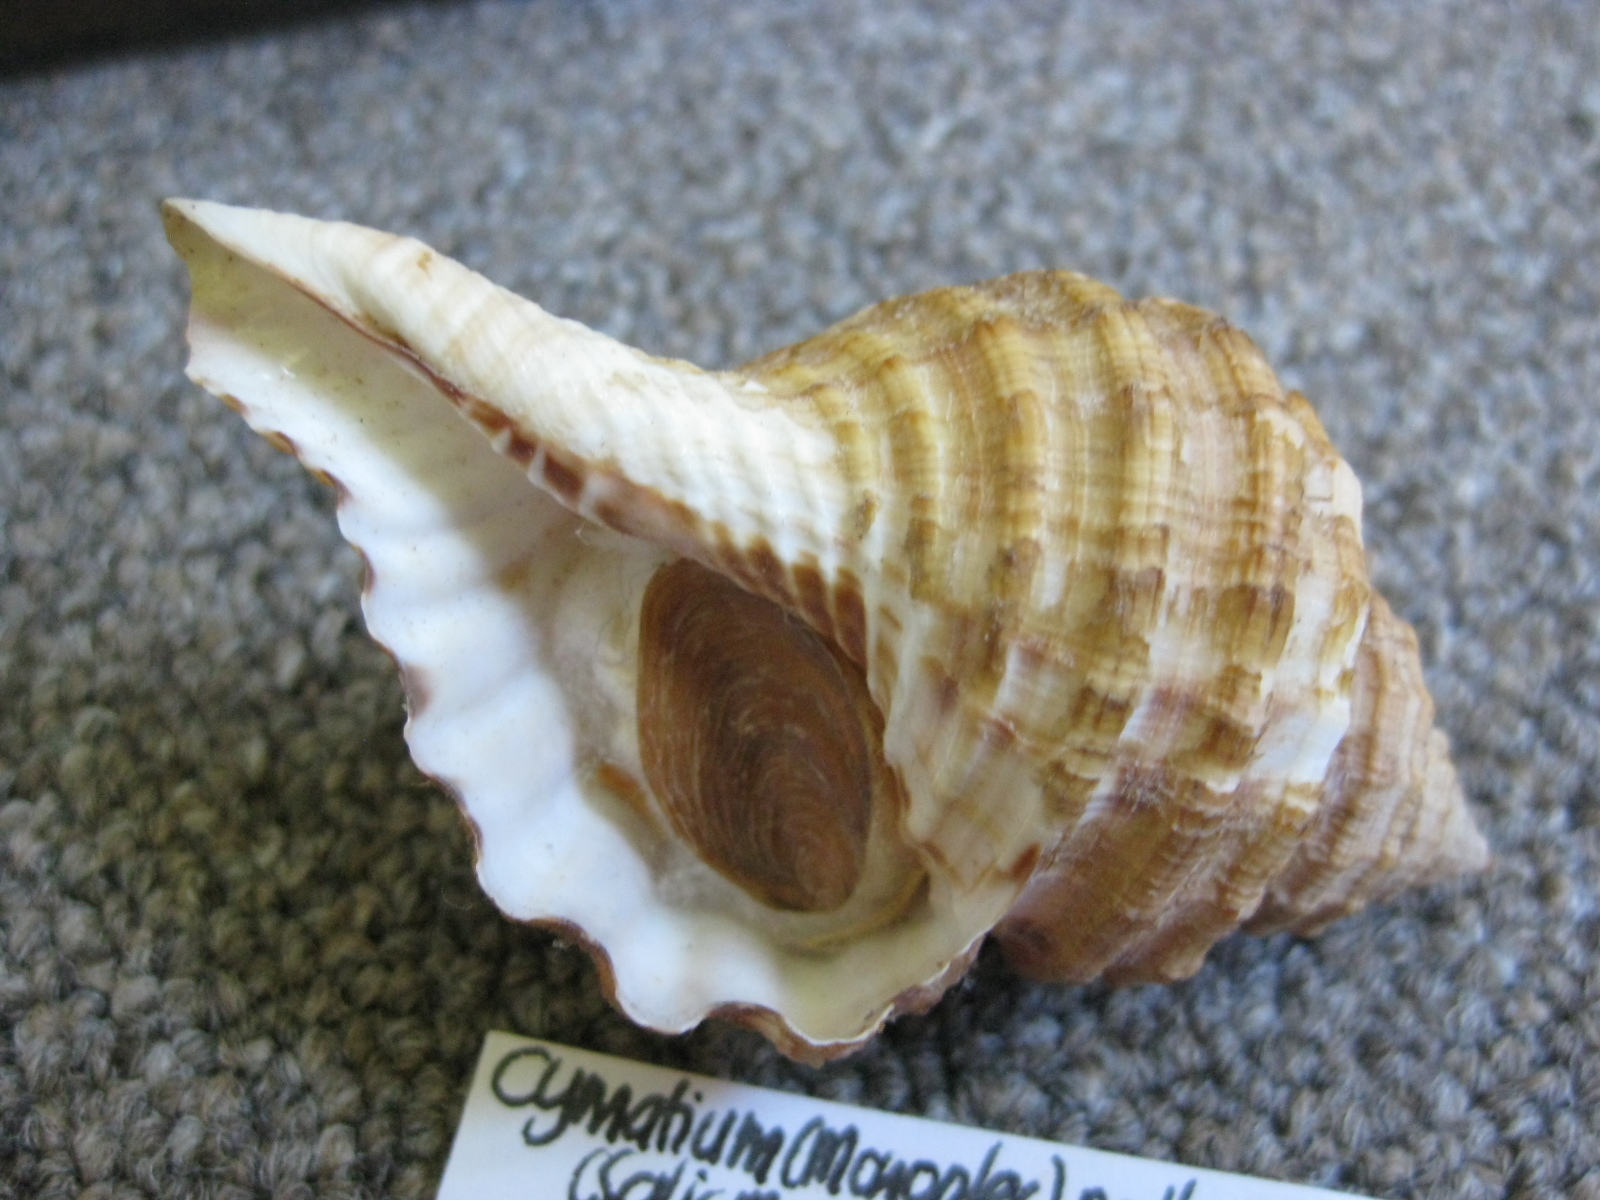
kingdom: Animalia
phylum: Mollusca
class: Gastropoda
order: Littorinimorpha
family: Cymatiidae
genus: Monoplex
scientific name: Monoplex parthenopeus
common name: Giant triton
